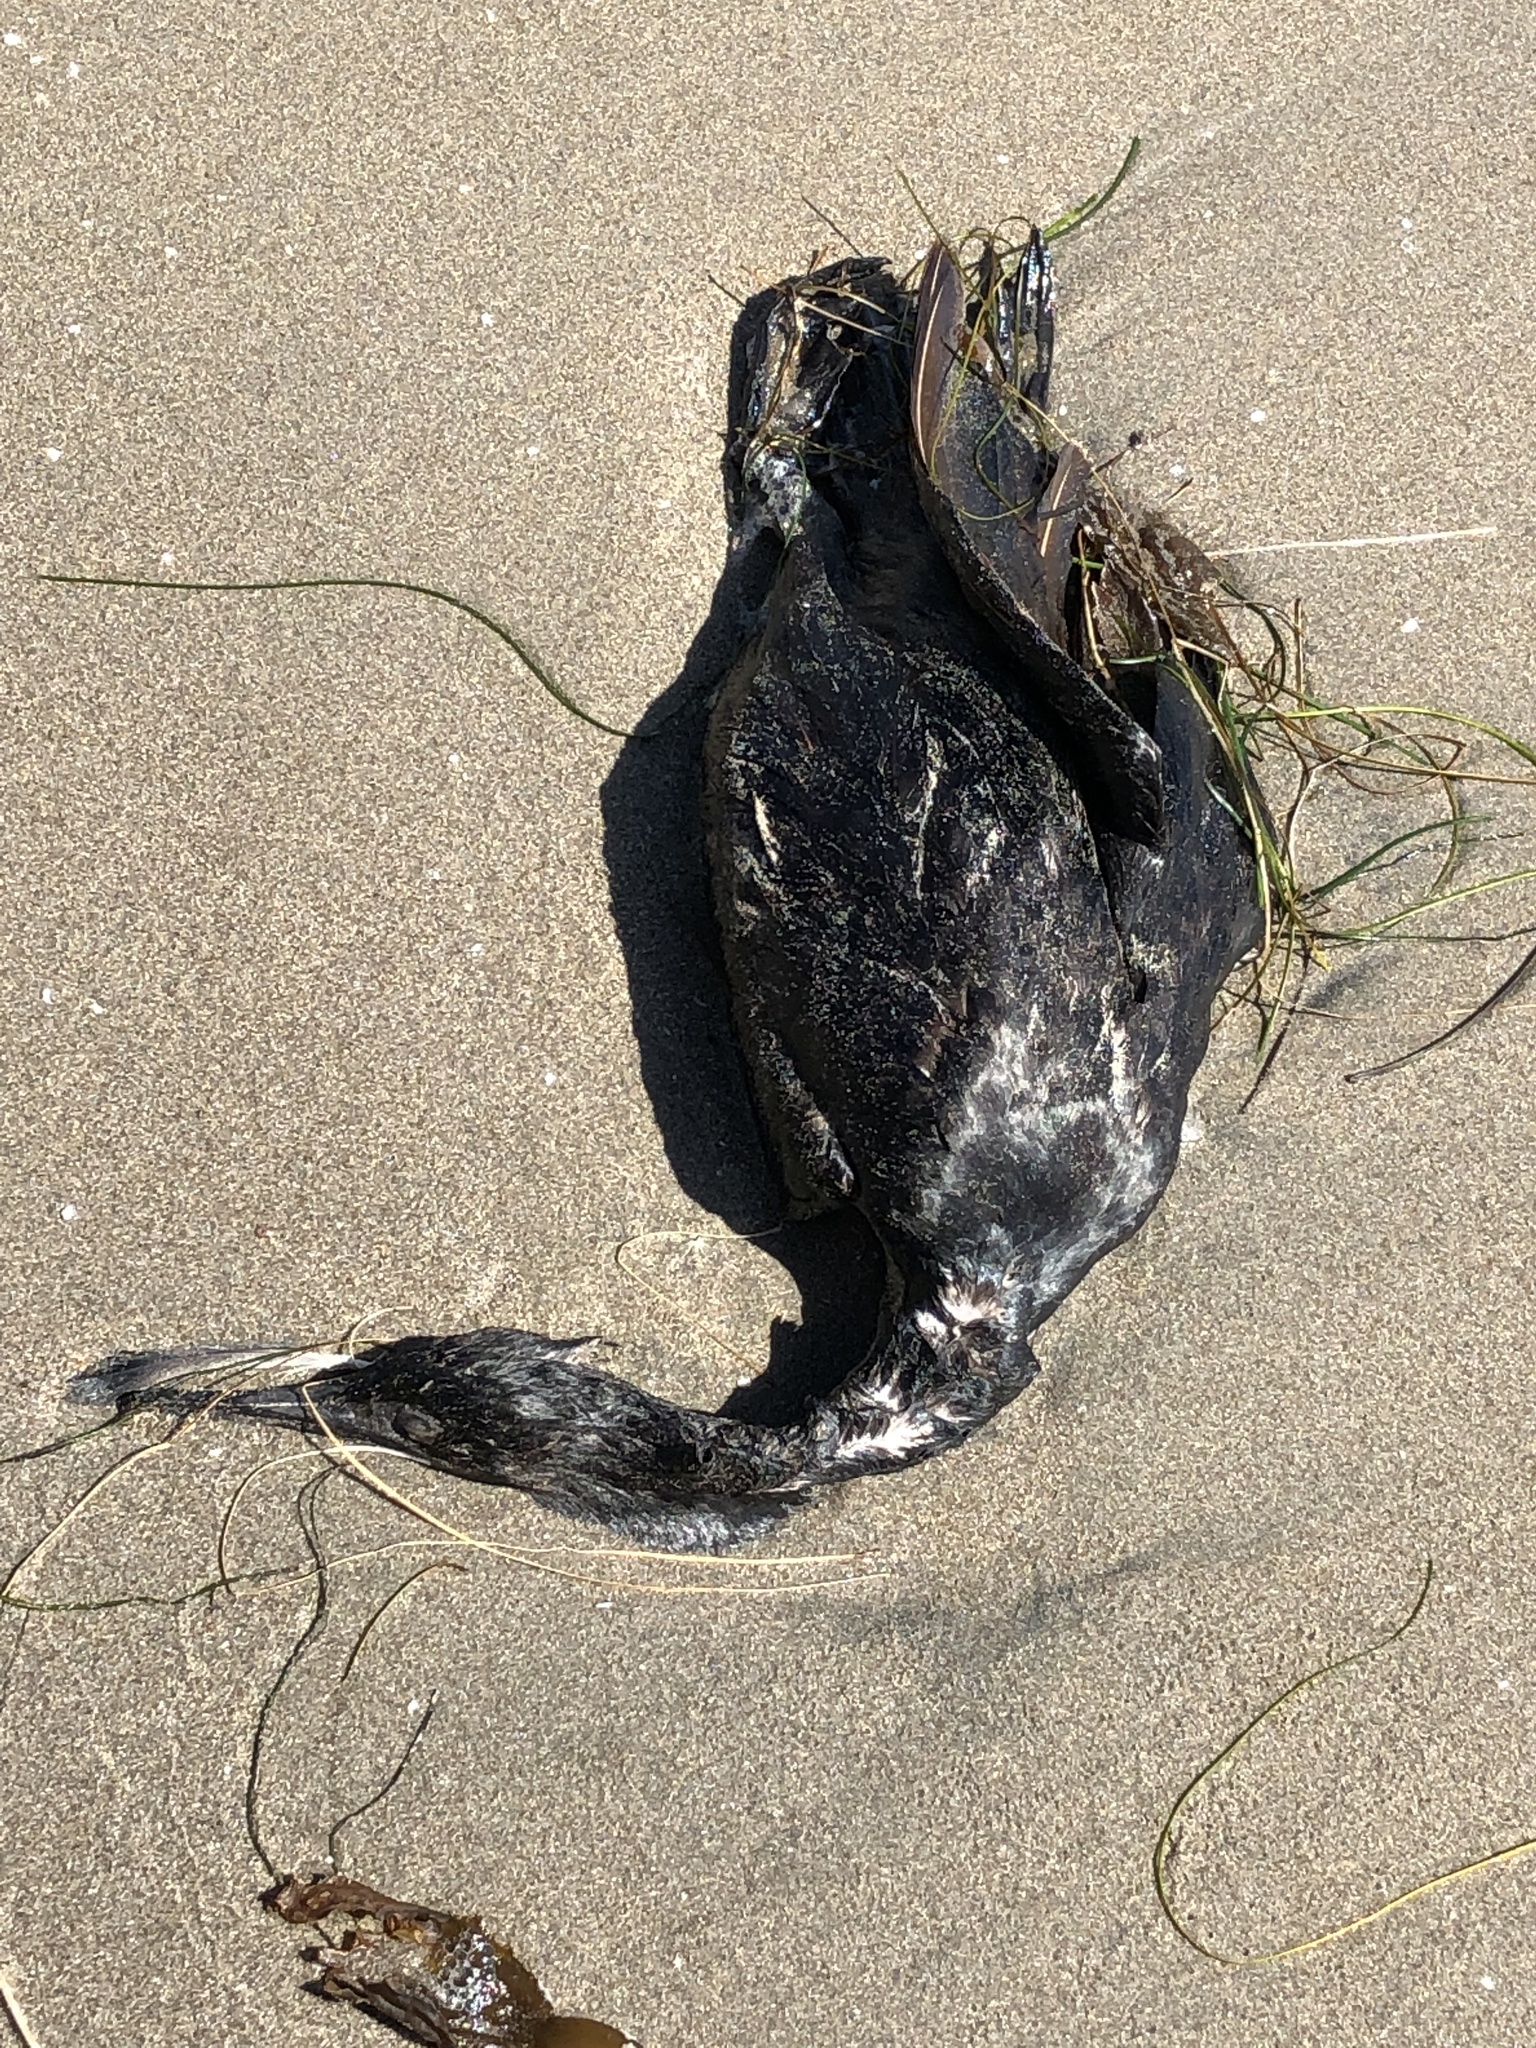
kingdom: Animalia
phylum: Chordata
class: Aves
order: Suliformes
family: Phalacrocoracidae
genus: Urile
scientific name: Urile penicillatus
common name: Brandt's cormorant
